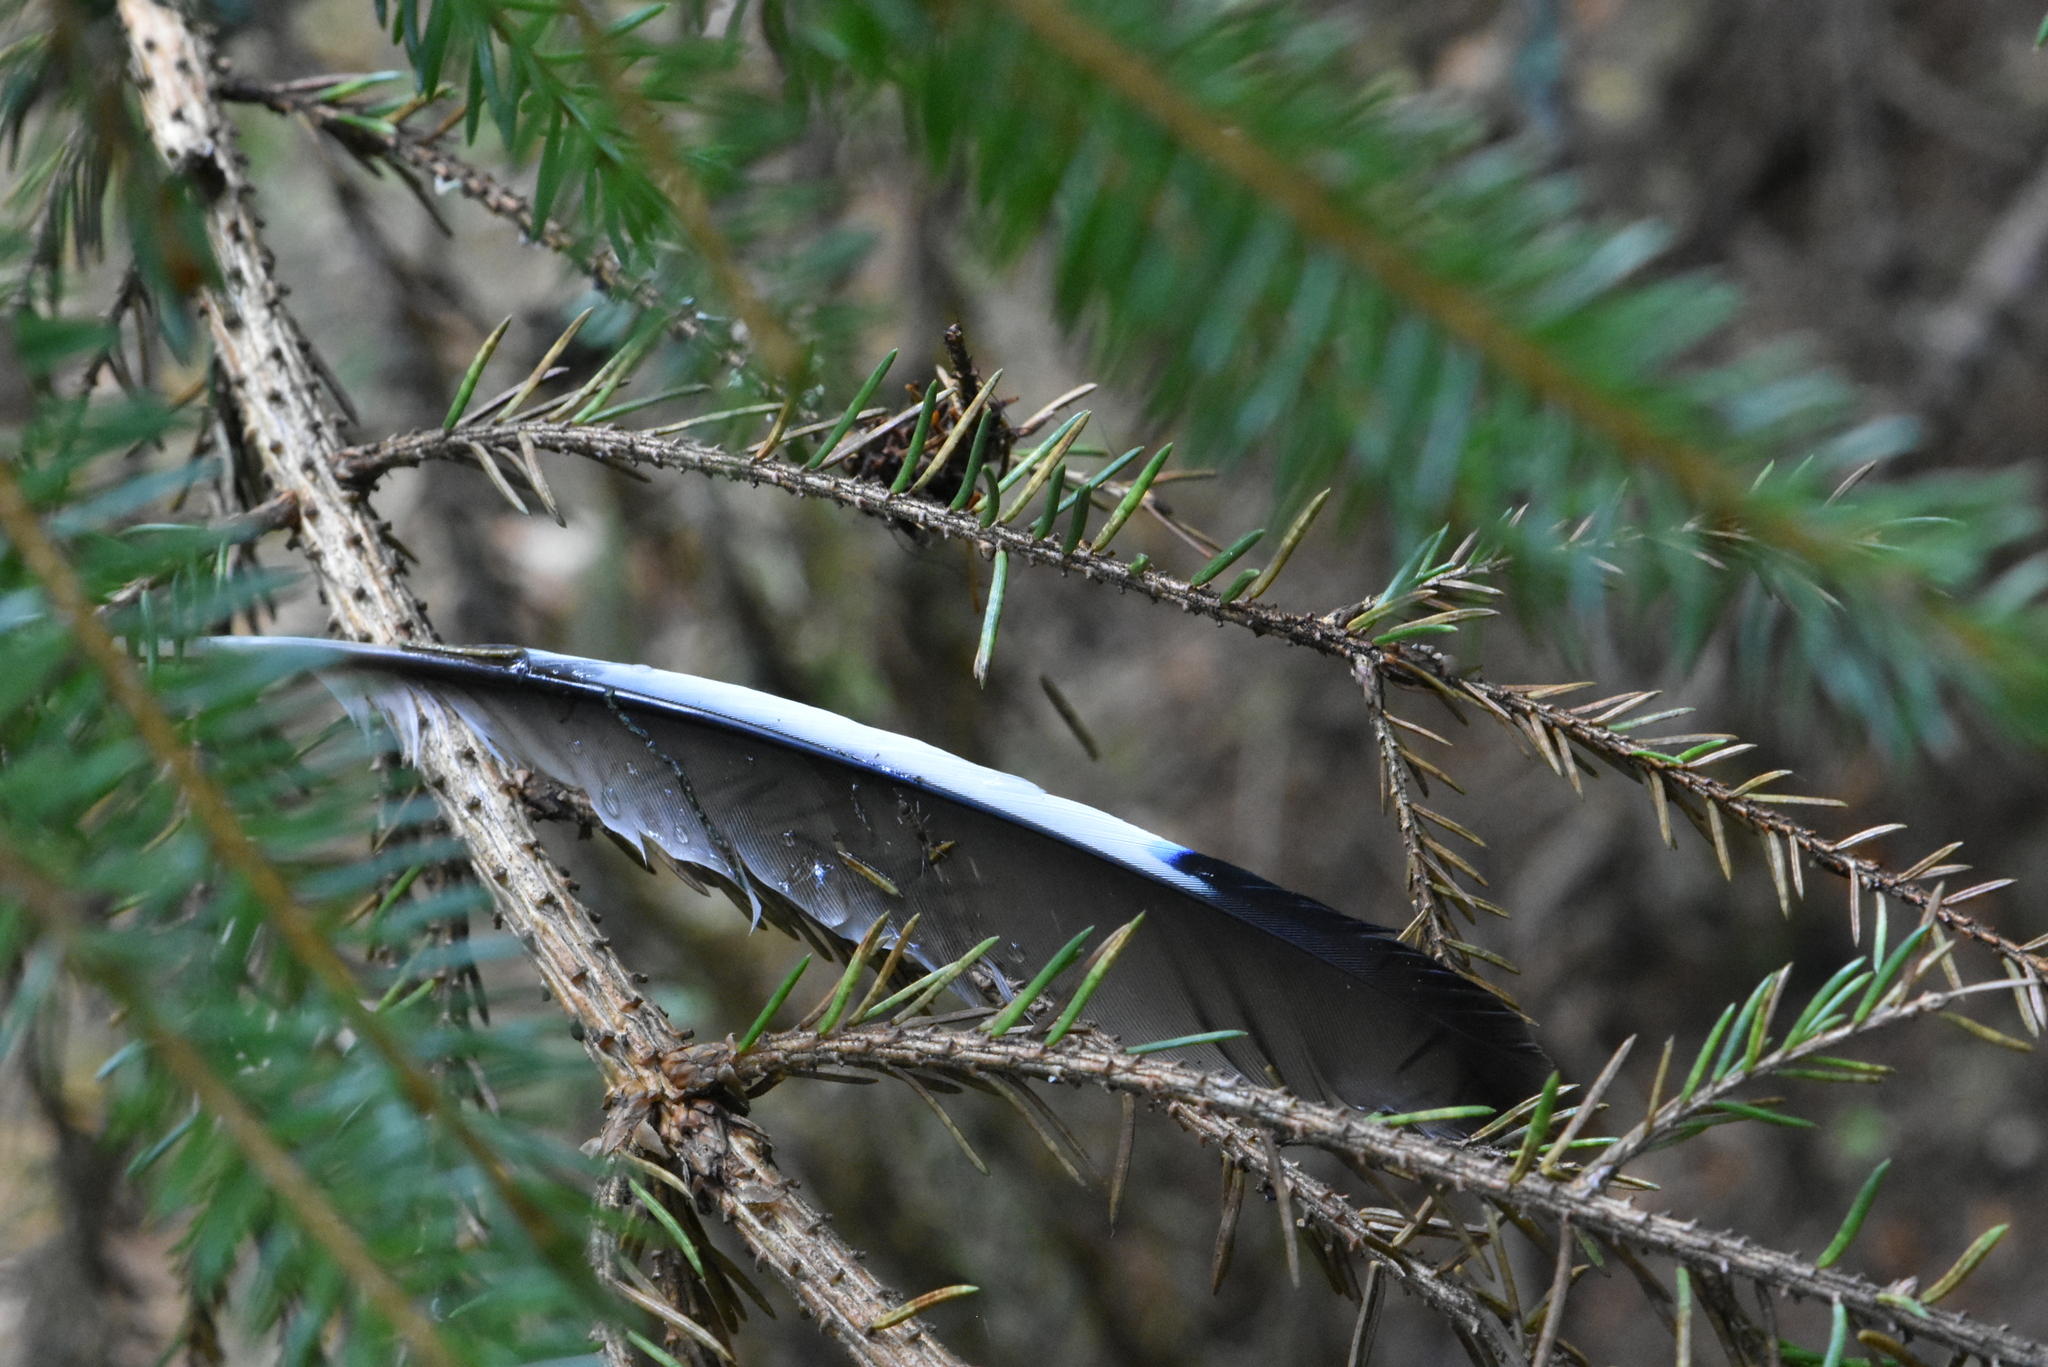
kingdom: Animalia
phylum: Chordata
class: Aves
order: Passeriformes
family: Corvidae
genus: Garrulus
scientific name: Garrulus glandarius
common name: Eurasian jay
